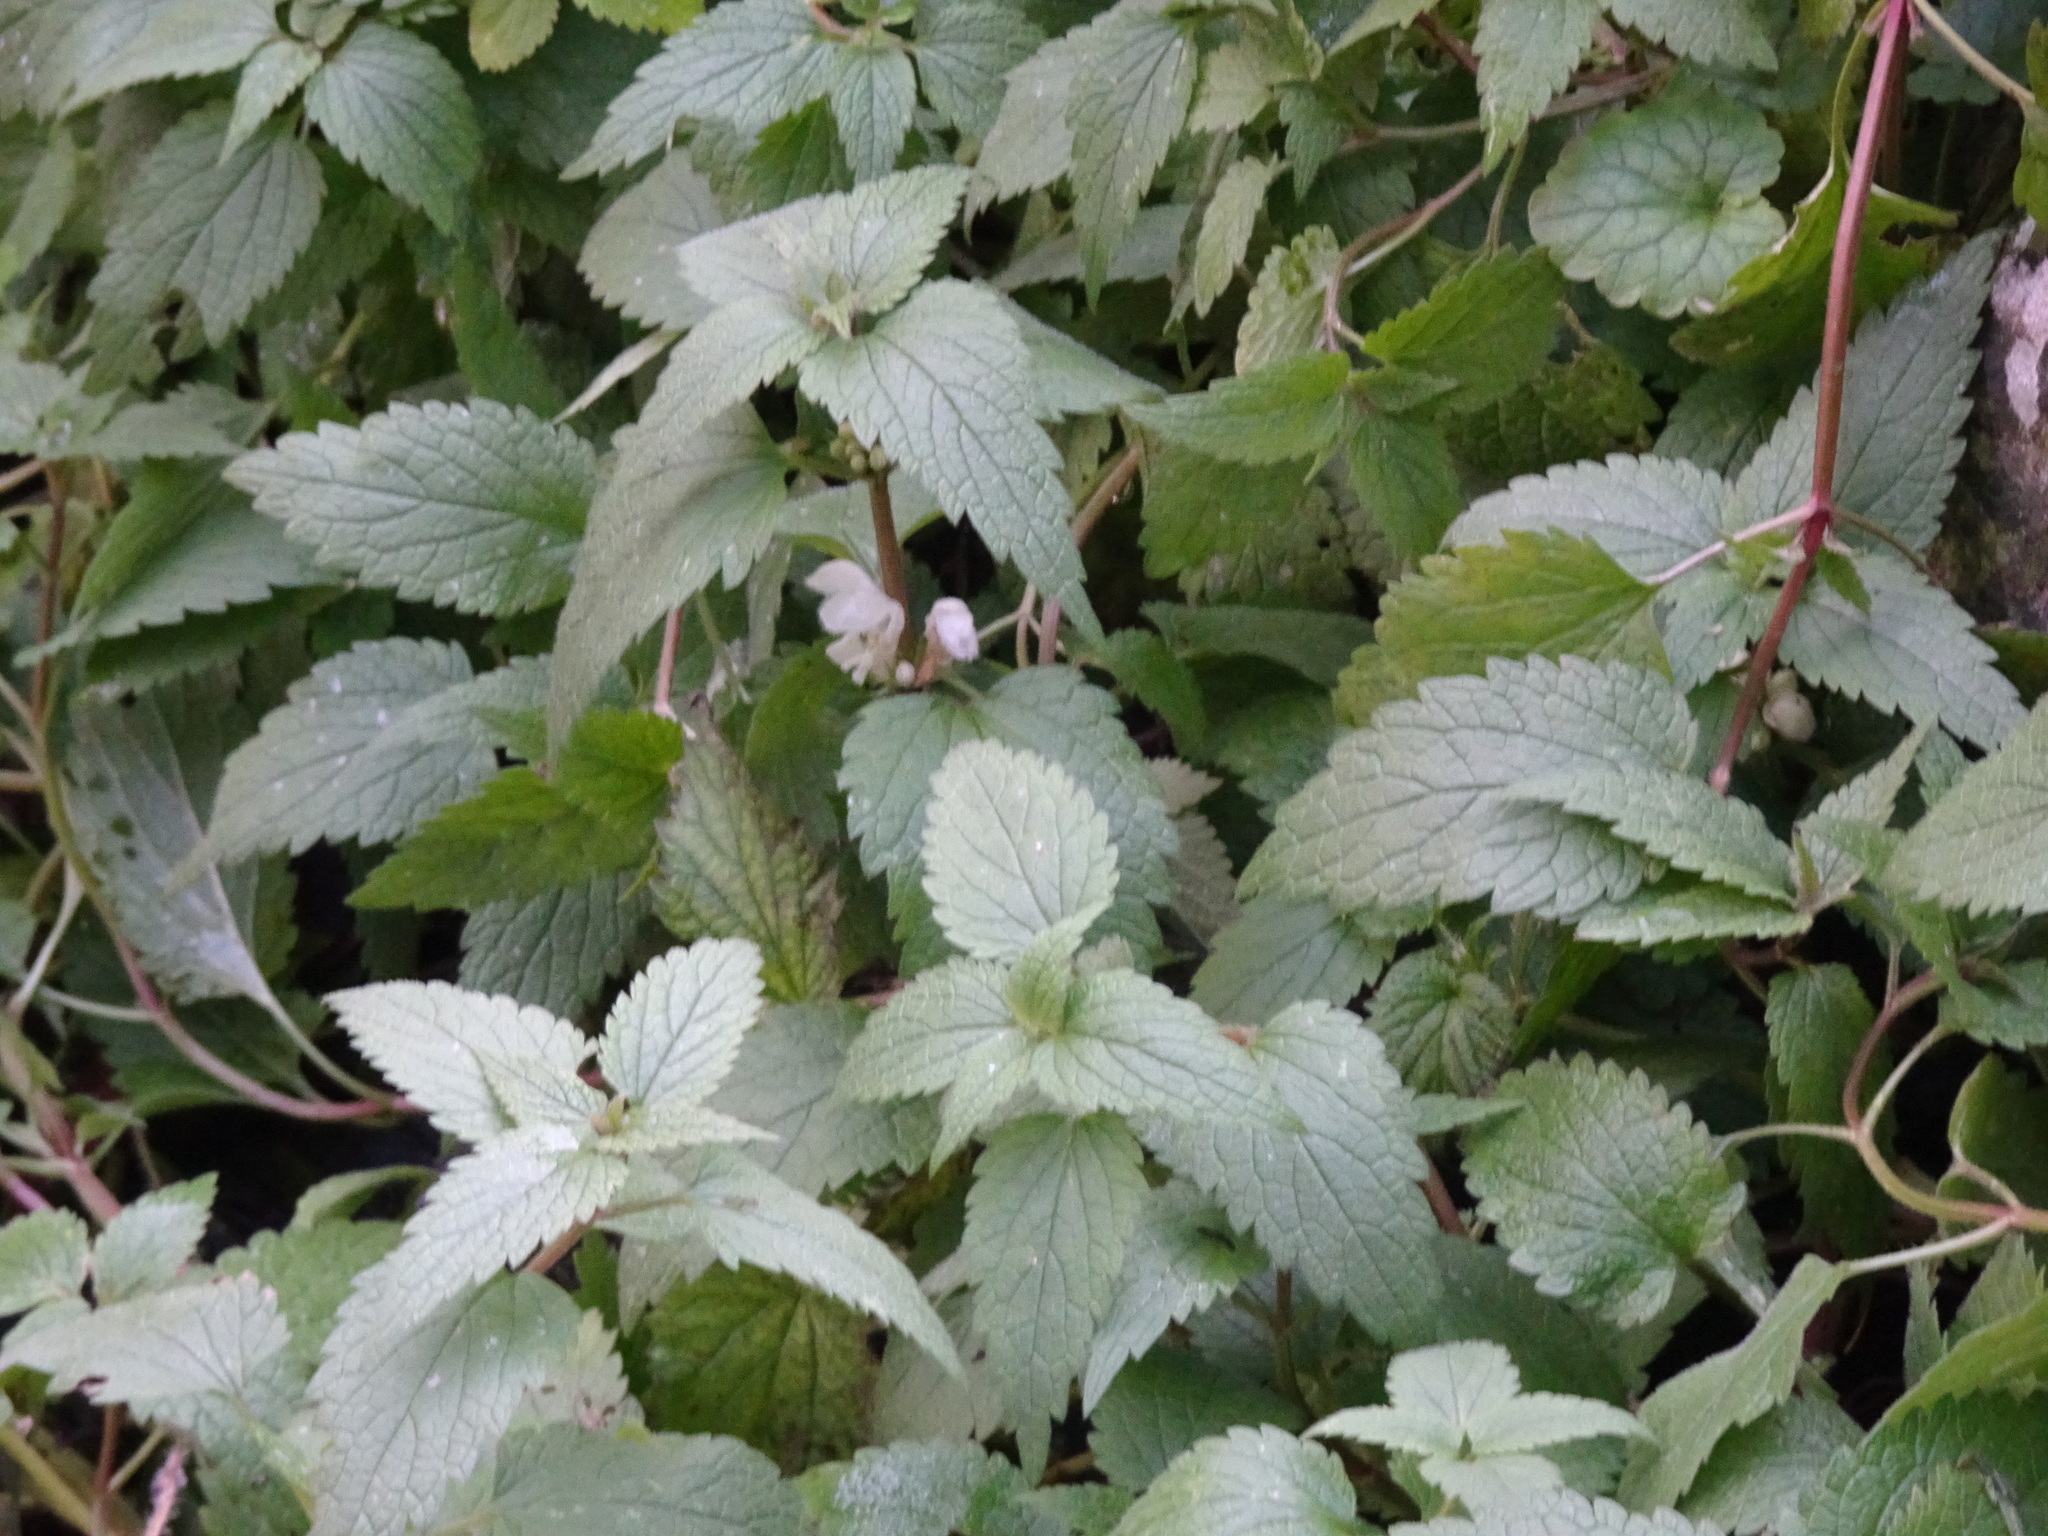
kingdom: Plantae
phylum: Tracheophyta
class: Magnoliopsida
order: Lamiales
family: Lamiaceae
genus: Lamium
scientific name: Lamium album
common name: White dead-nettle
